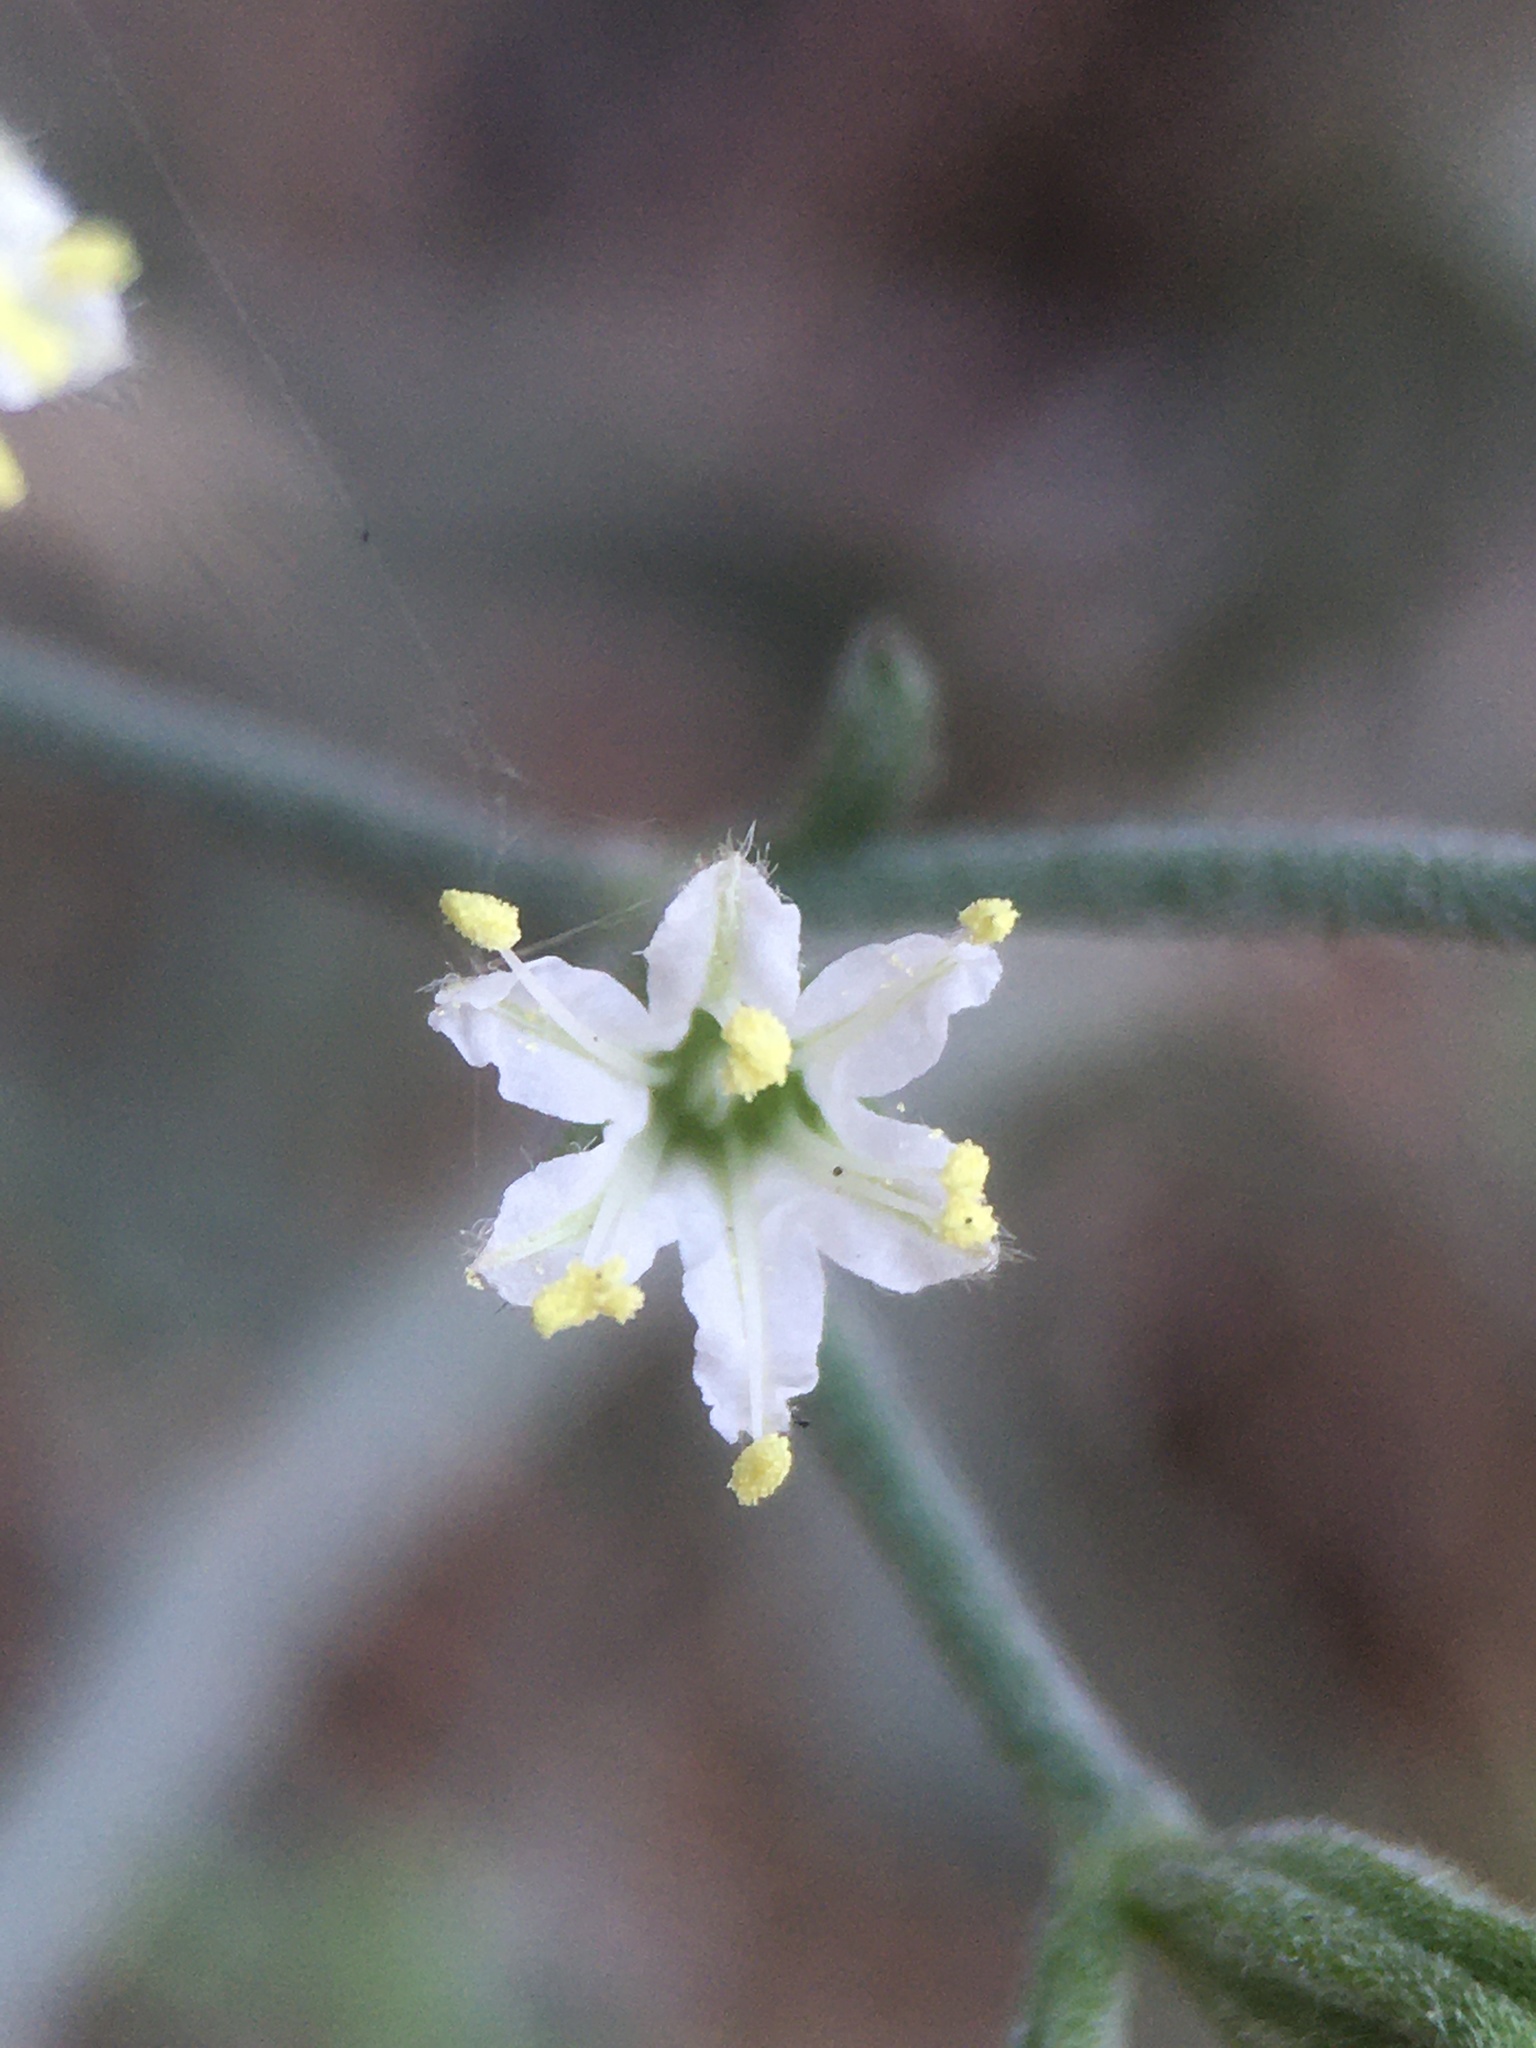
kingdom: Plantae
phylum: Tracheophyta
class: Magnoliopsida
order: Caryophyllales
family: Polygonaceae
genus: Chorizanthe
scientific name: Chorizanthe kingii
